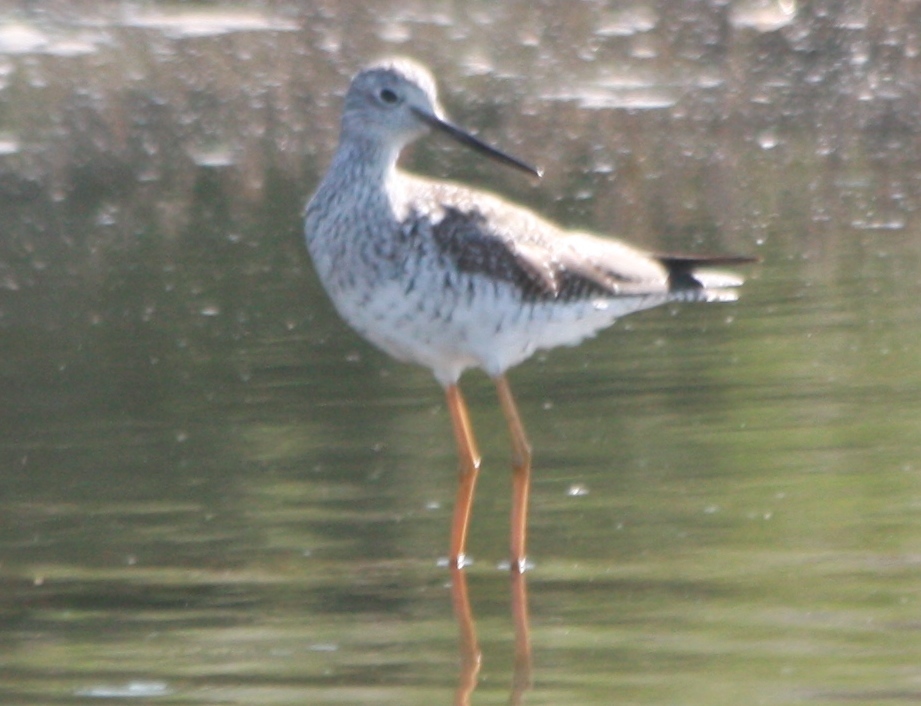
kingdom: Animalia
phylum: Chordata
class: Aves
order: Charadriiformes
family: Scolopacidae
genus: Tringa
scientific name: Tringa melanoleuca
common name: Greater yellowlegs
